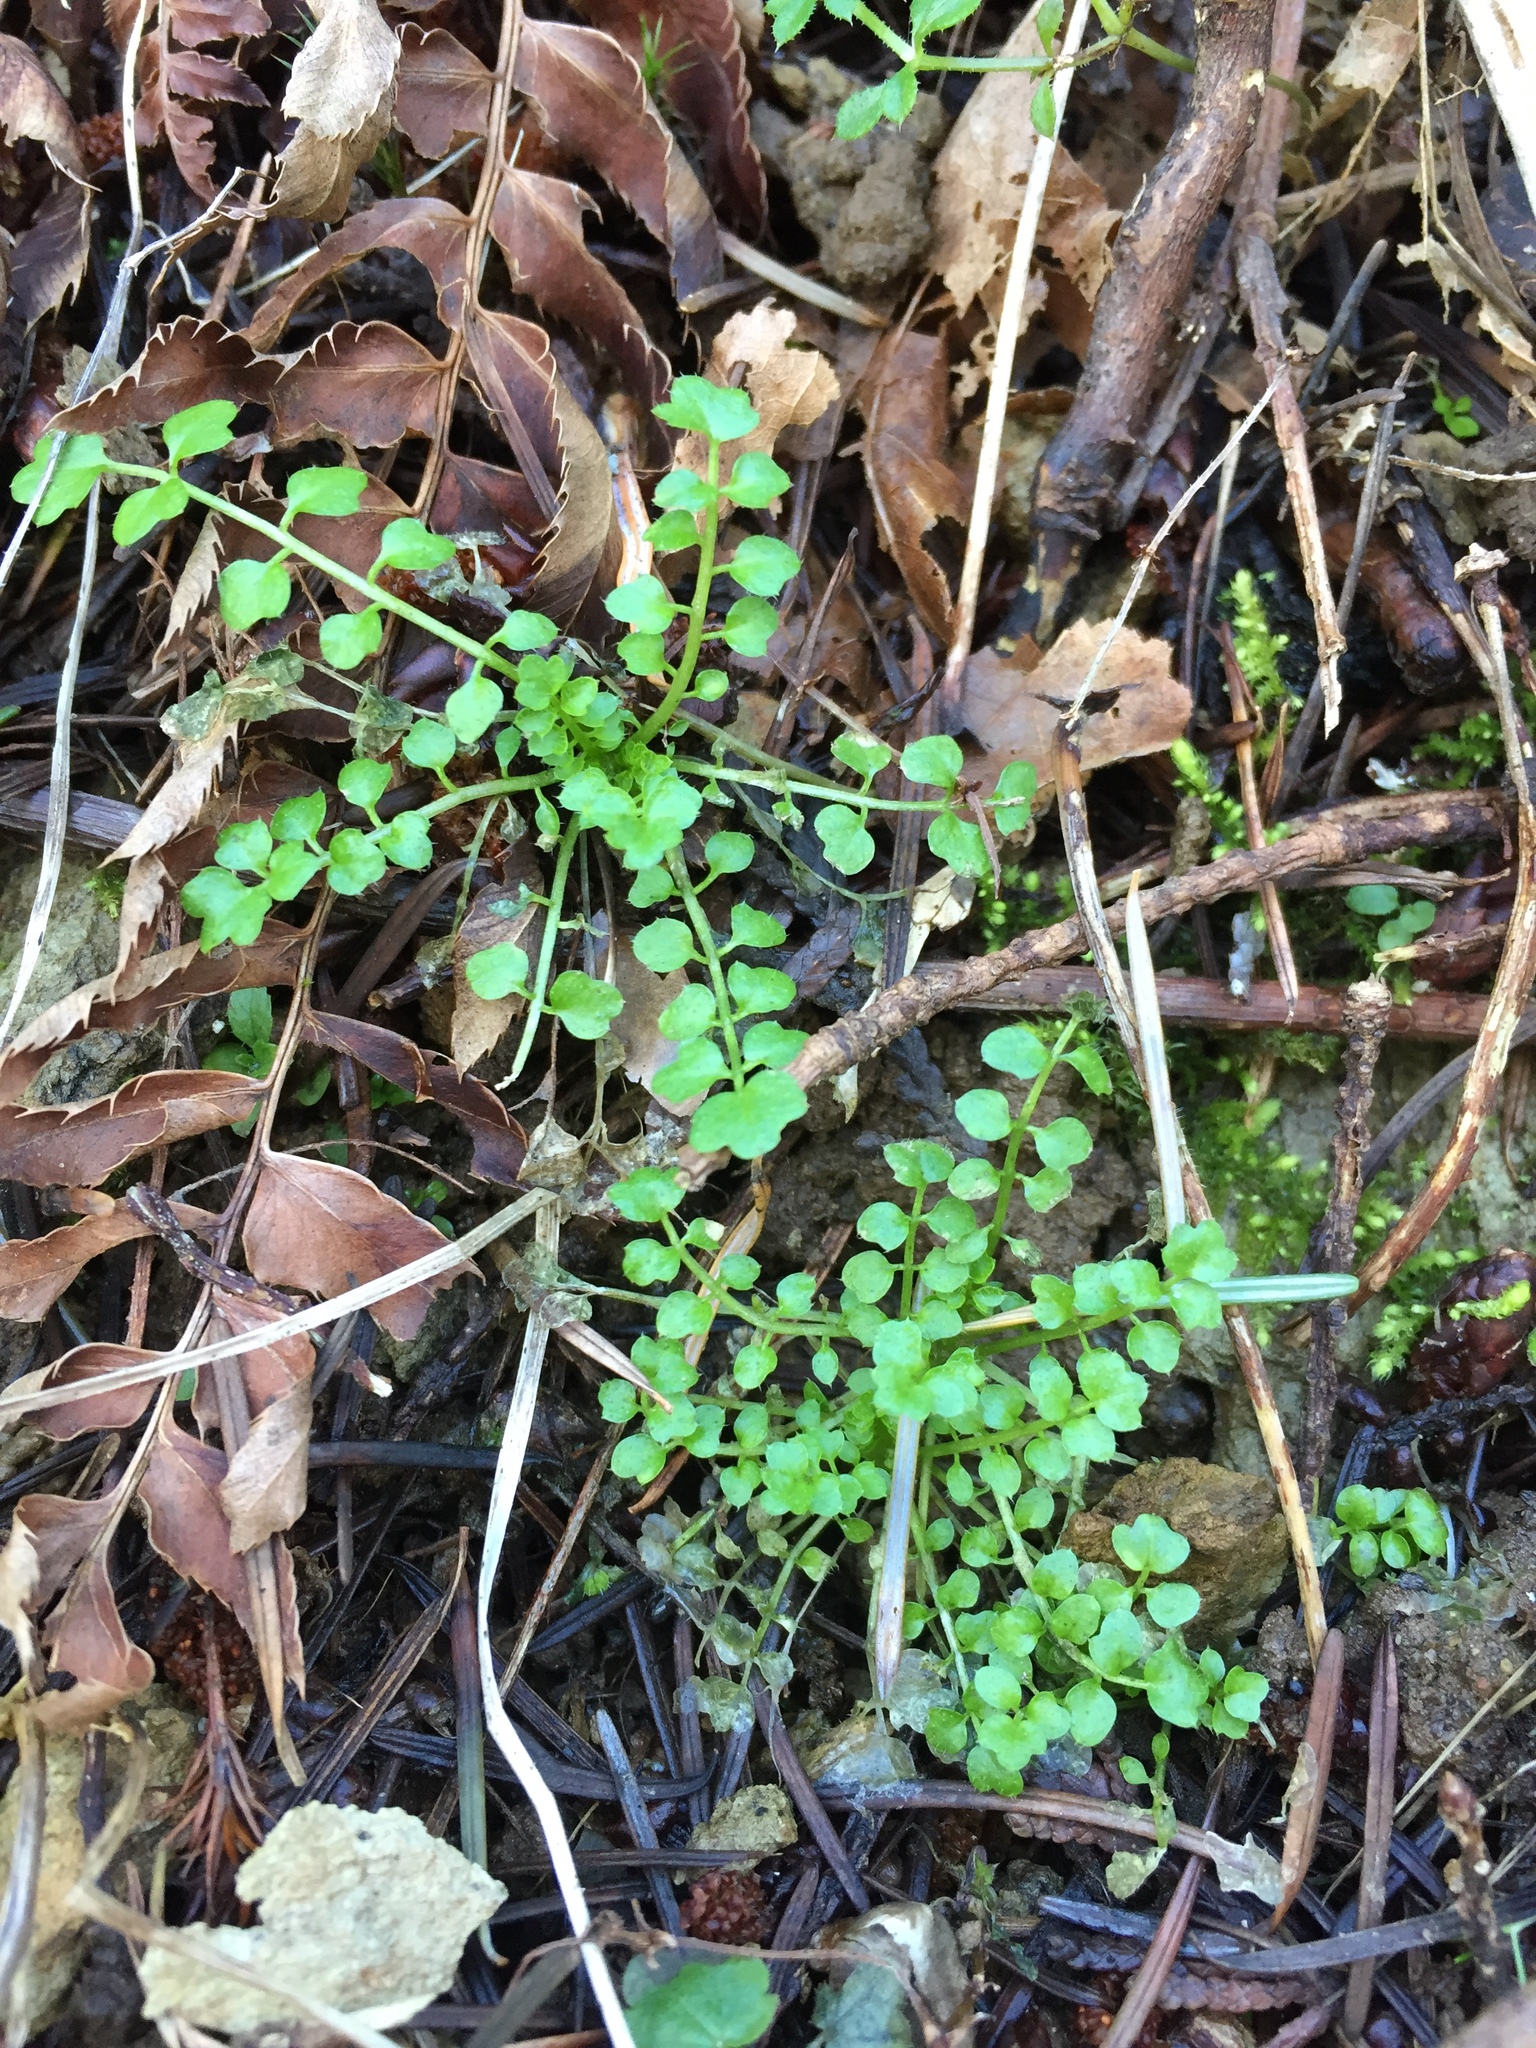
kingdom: Plantae
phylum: Tracheophyta
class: Magnoliopsida
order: Brassicales
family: Brassicaceae
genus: Cardamine
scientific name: Cardamine oligosperma
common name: Idaho bittercress
